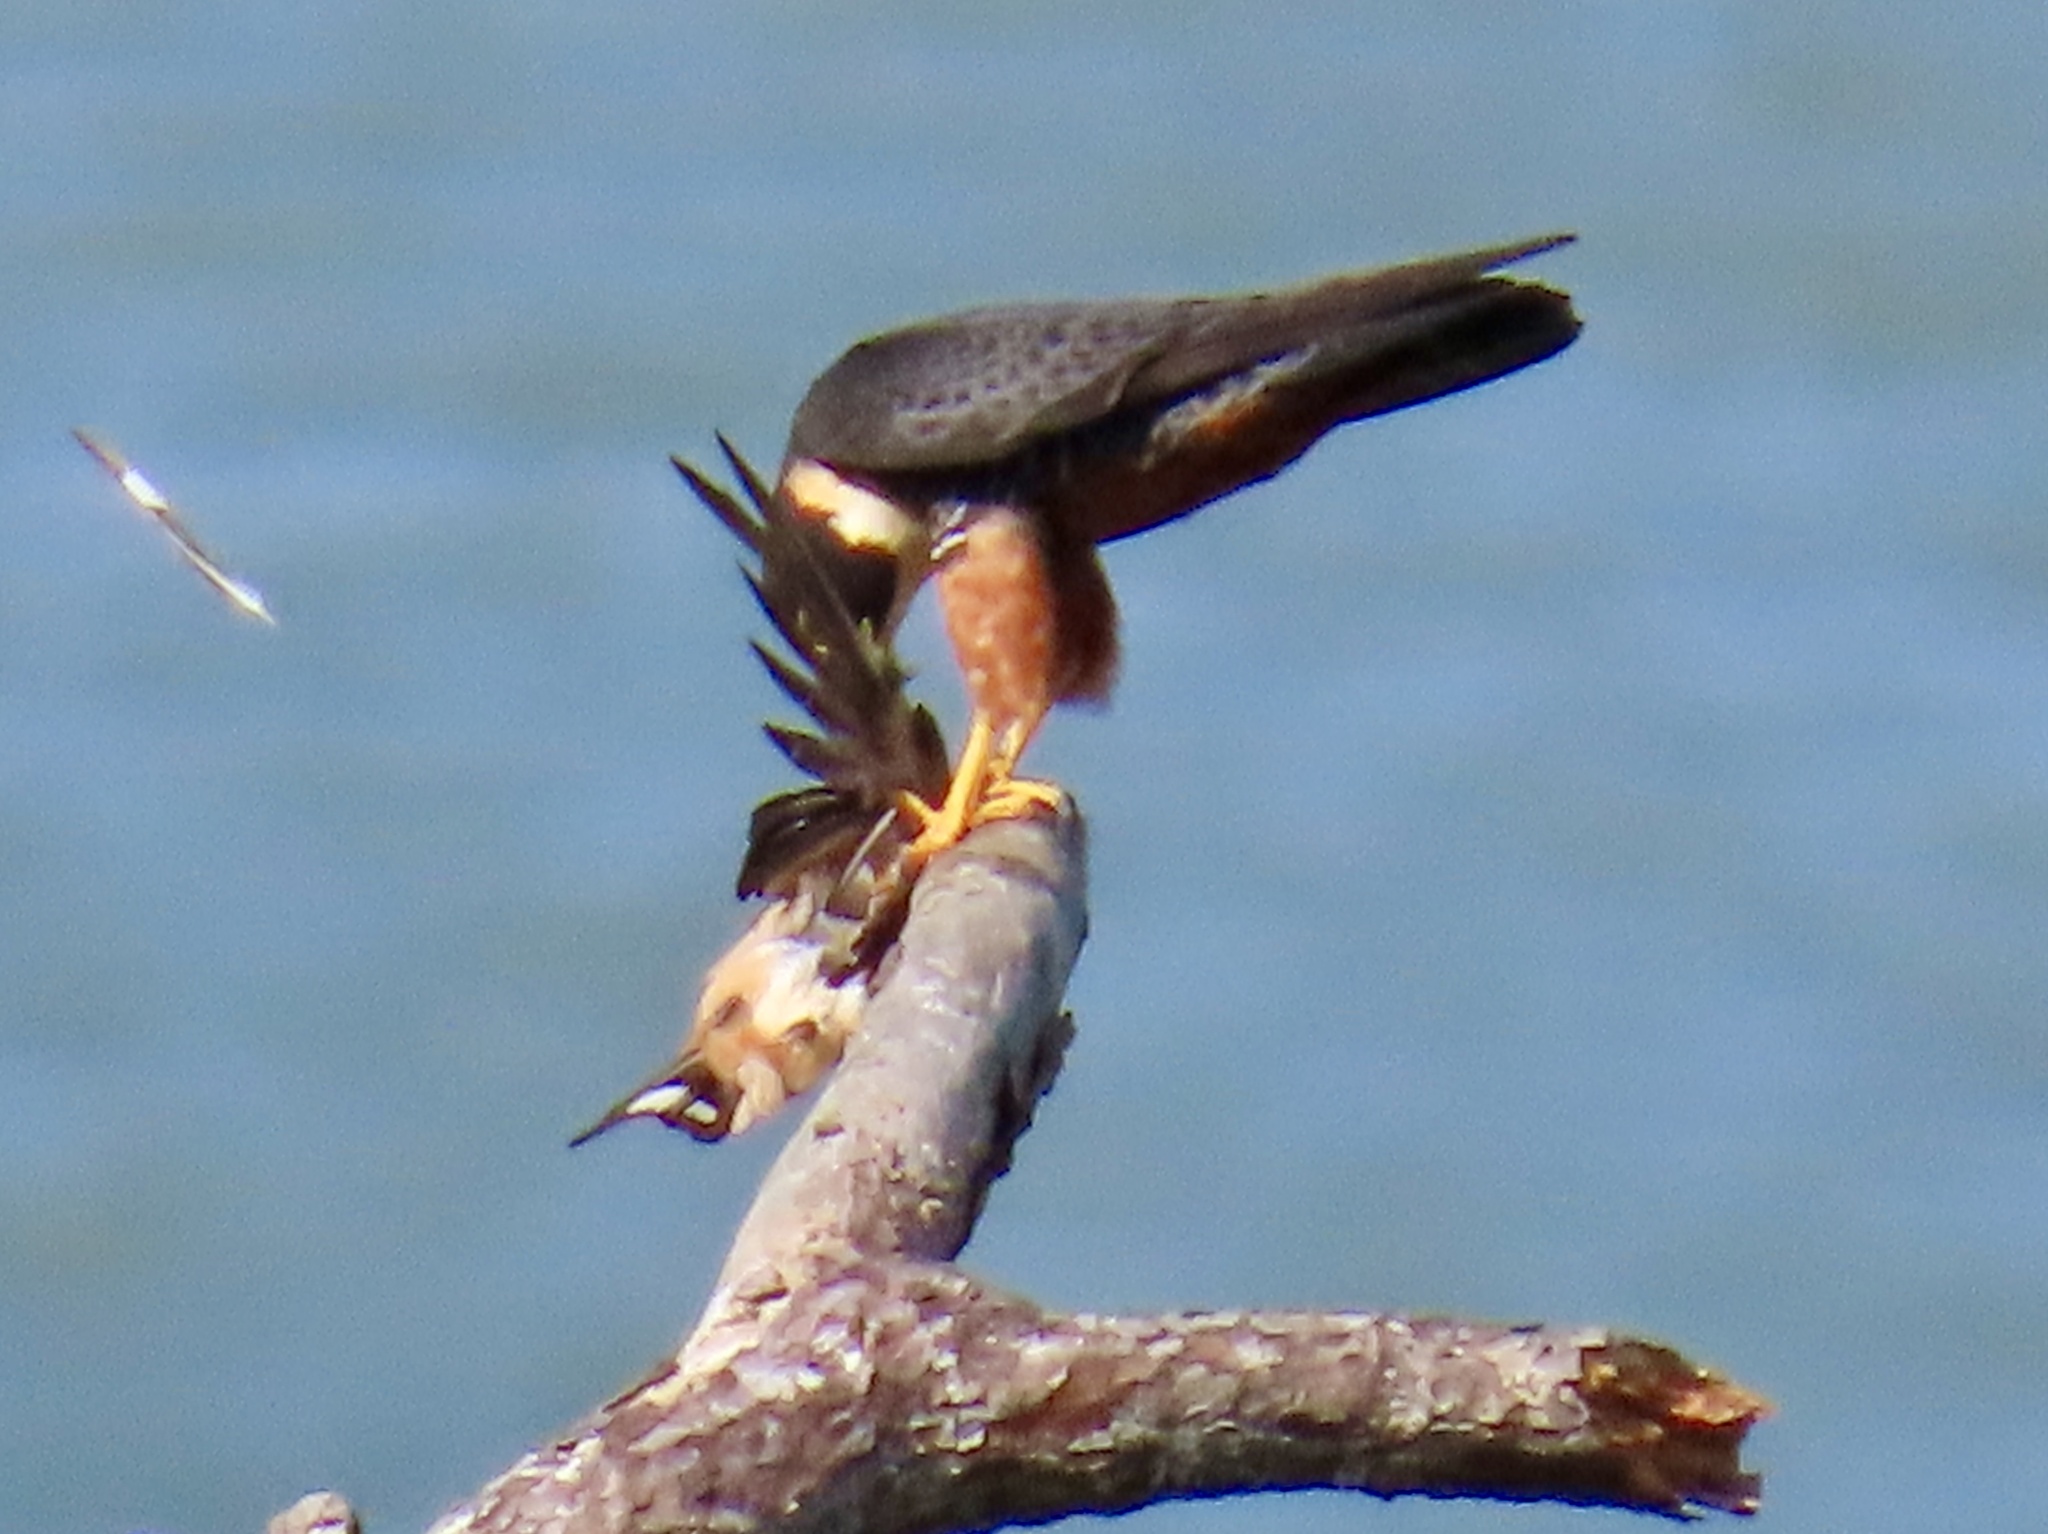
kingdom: Animalia
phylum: Chordata
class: Aves
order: Passeriformes
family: Hirundinidae
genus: Hirundo
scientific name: Hirundo rustica
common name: Barn swallow
